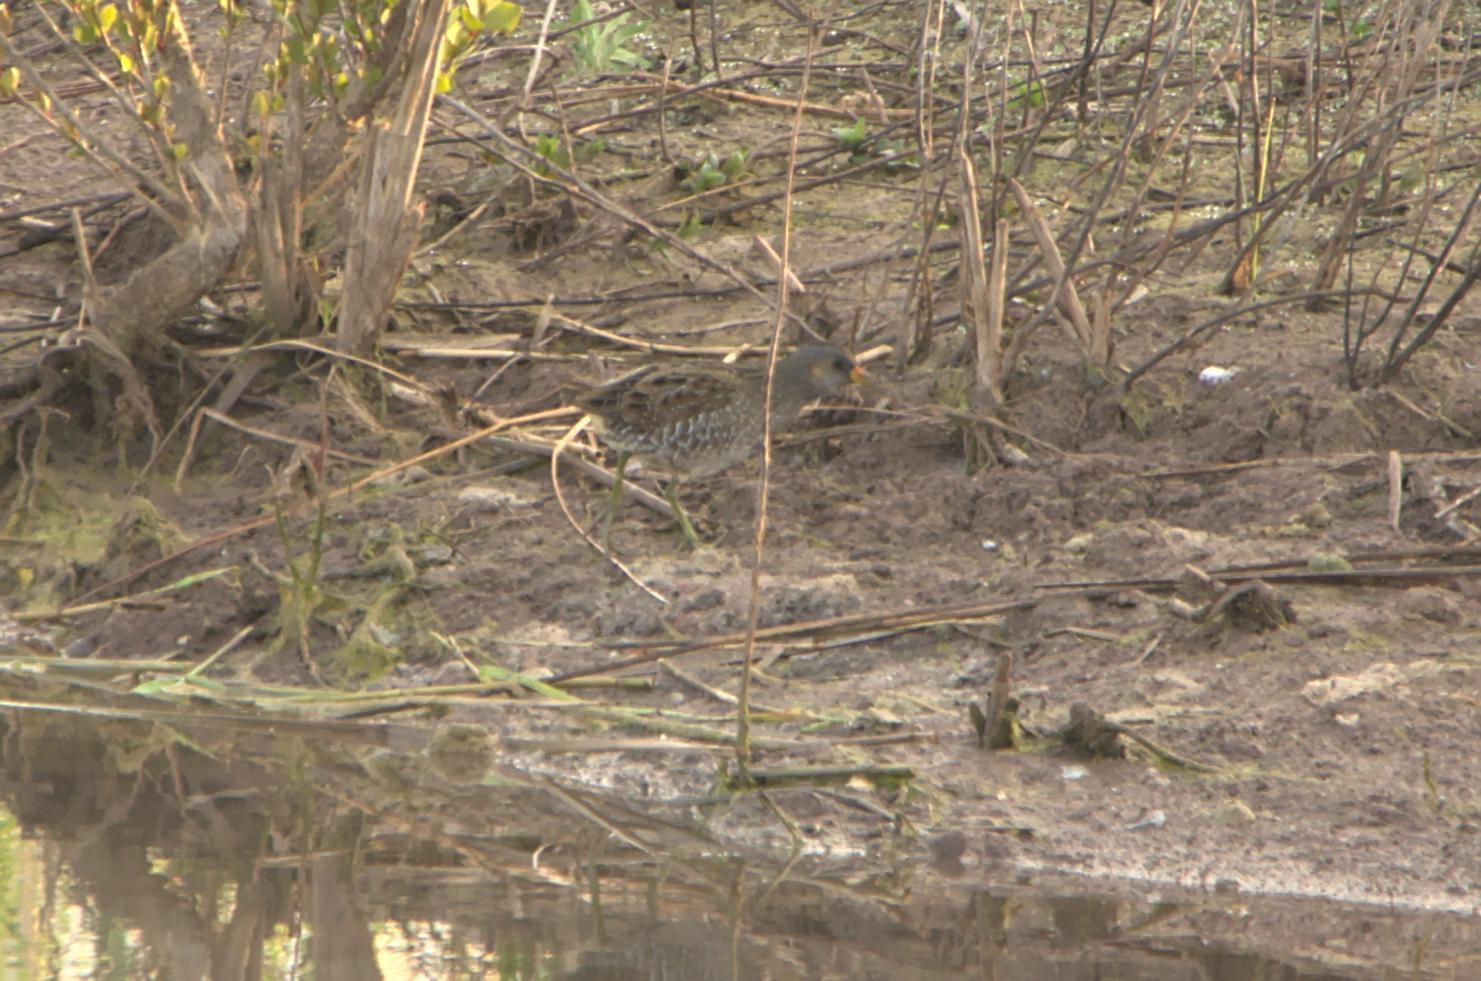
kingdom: Animalia
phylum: Chordata
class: Aves
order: Gruiformes
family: Rallidae
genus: Porzana
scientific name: Porzana porzana
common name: Spotted crake
